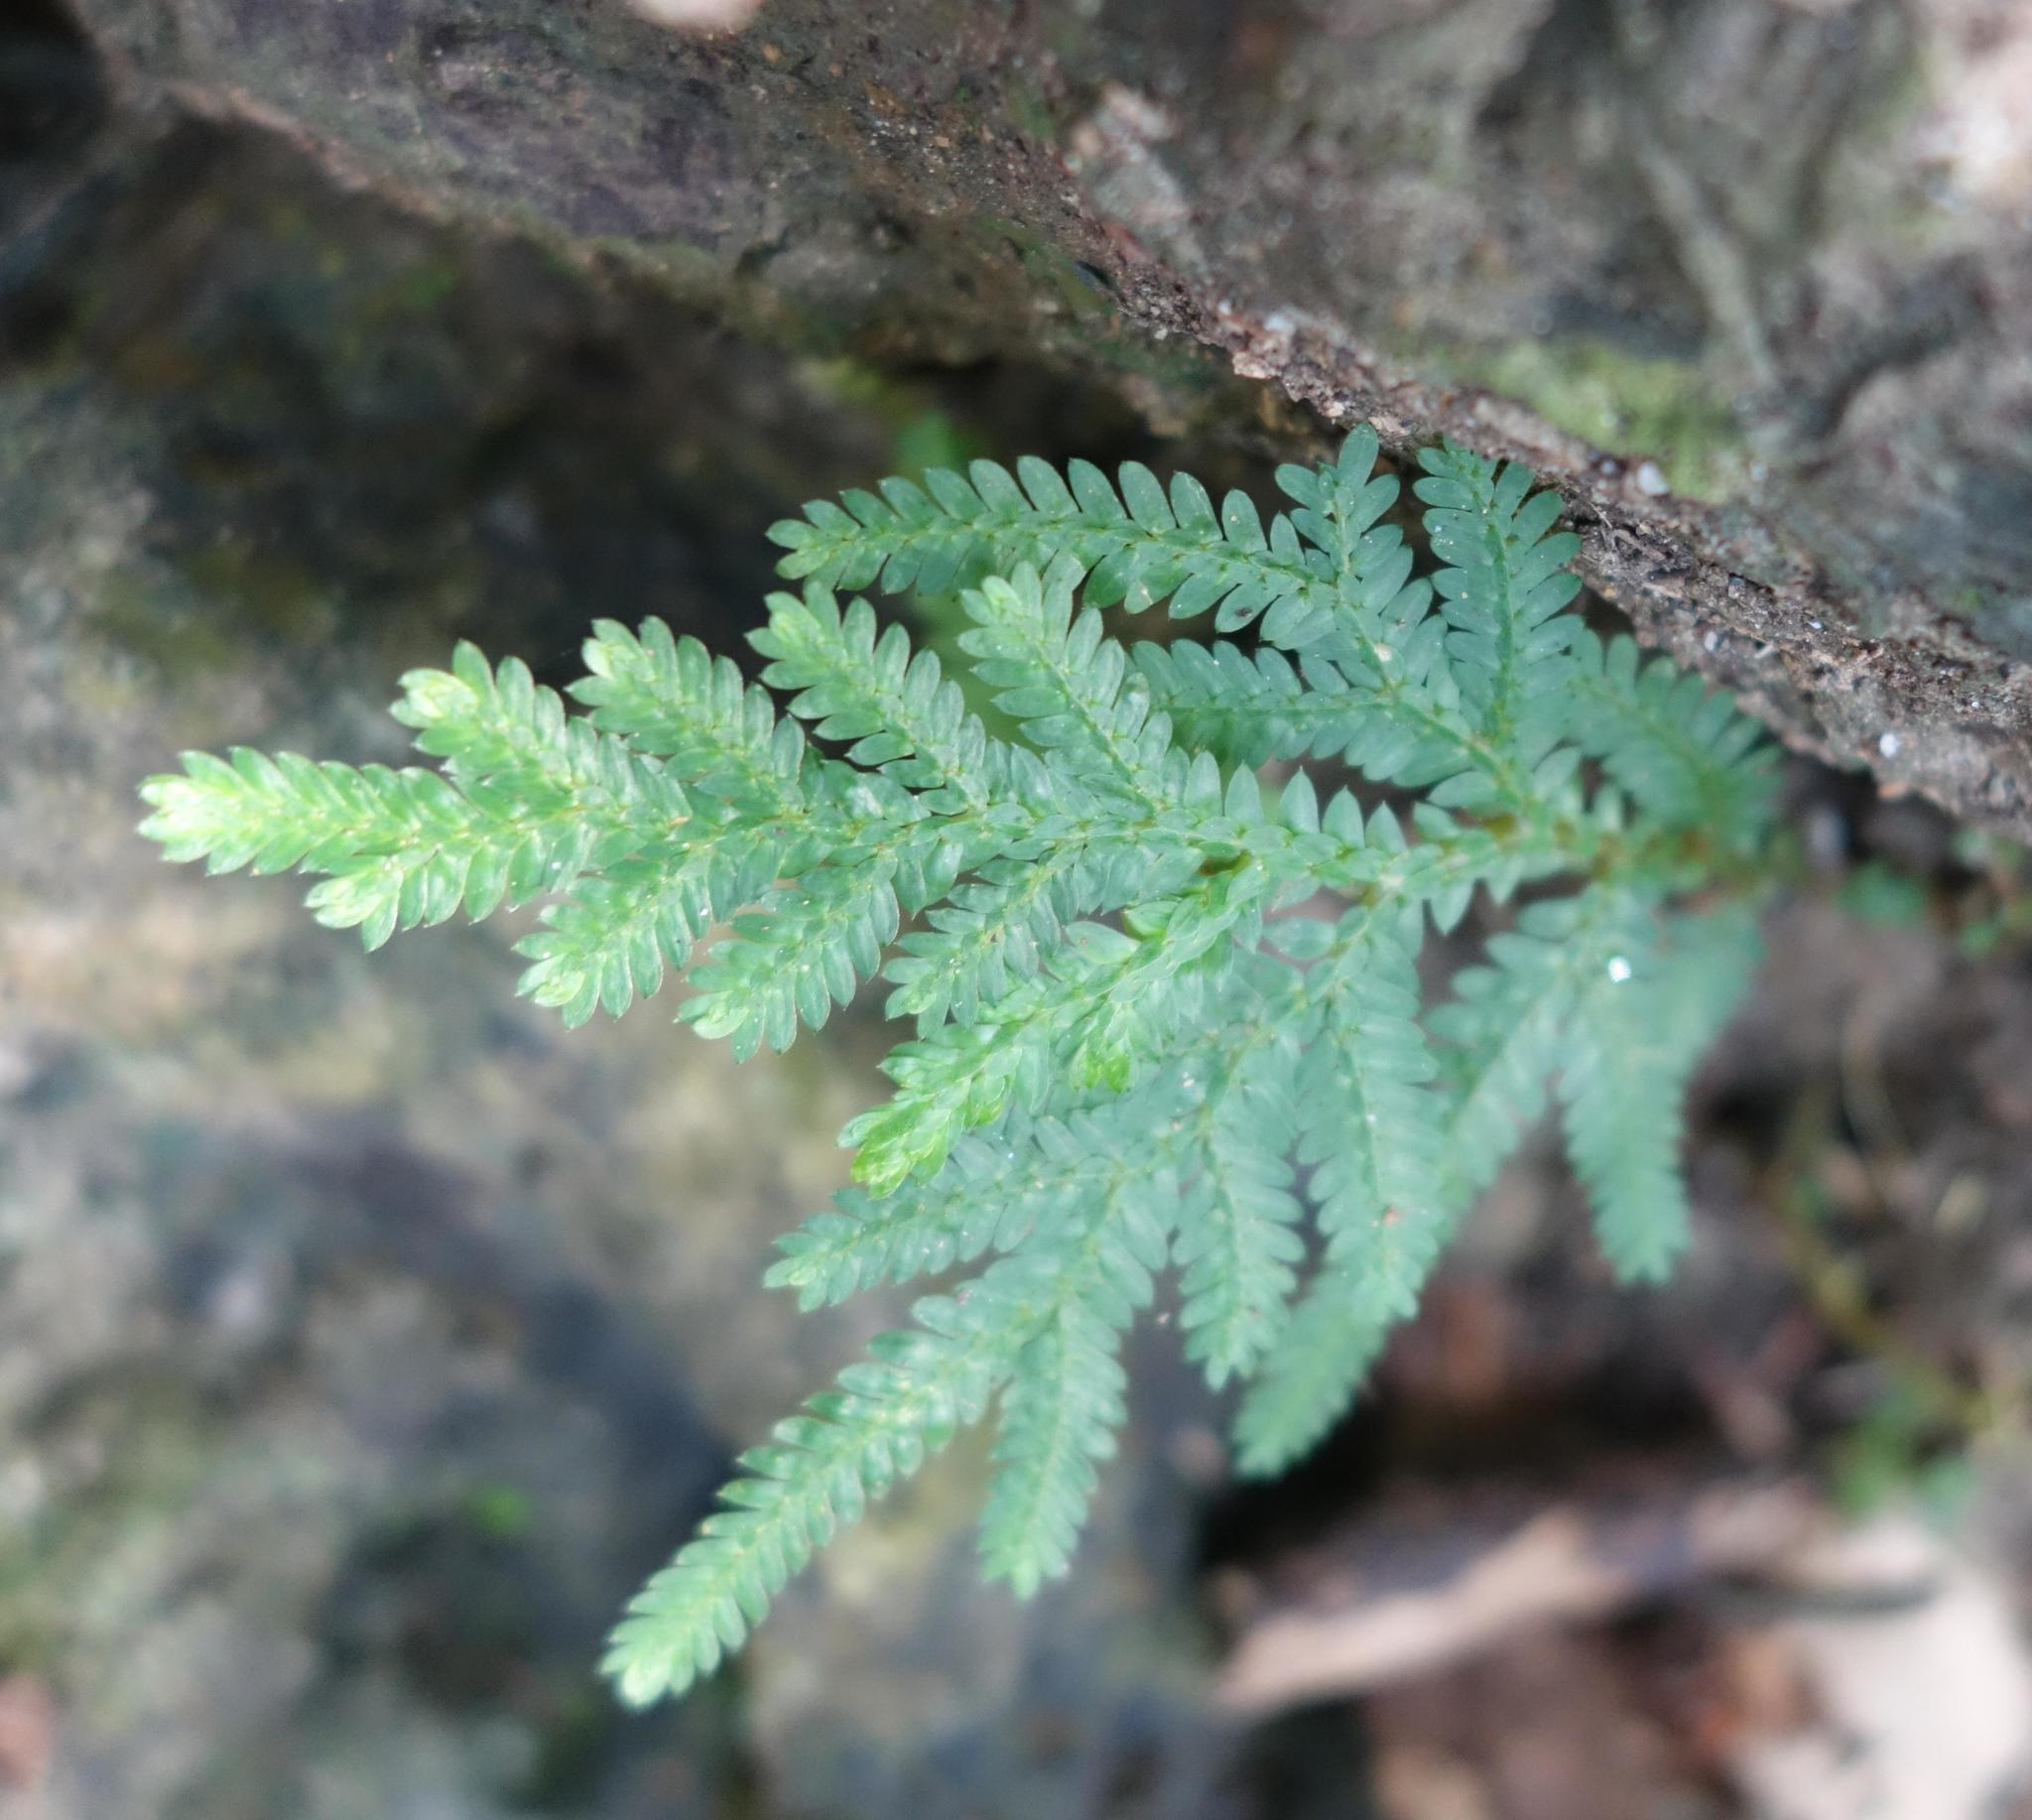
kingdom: Plantae
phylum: Tracheophyta
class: Lycopodiopsida
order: Selaginellales
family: Selaginellaceae
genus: Selaginella
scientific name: Selaginella delicatula
